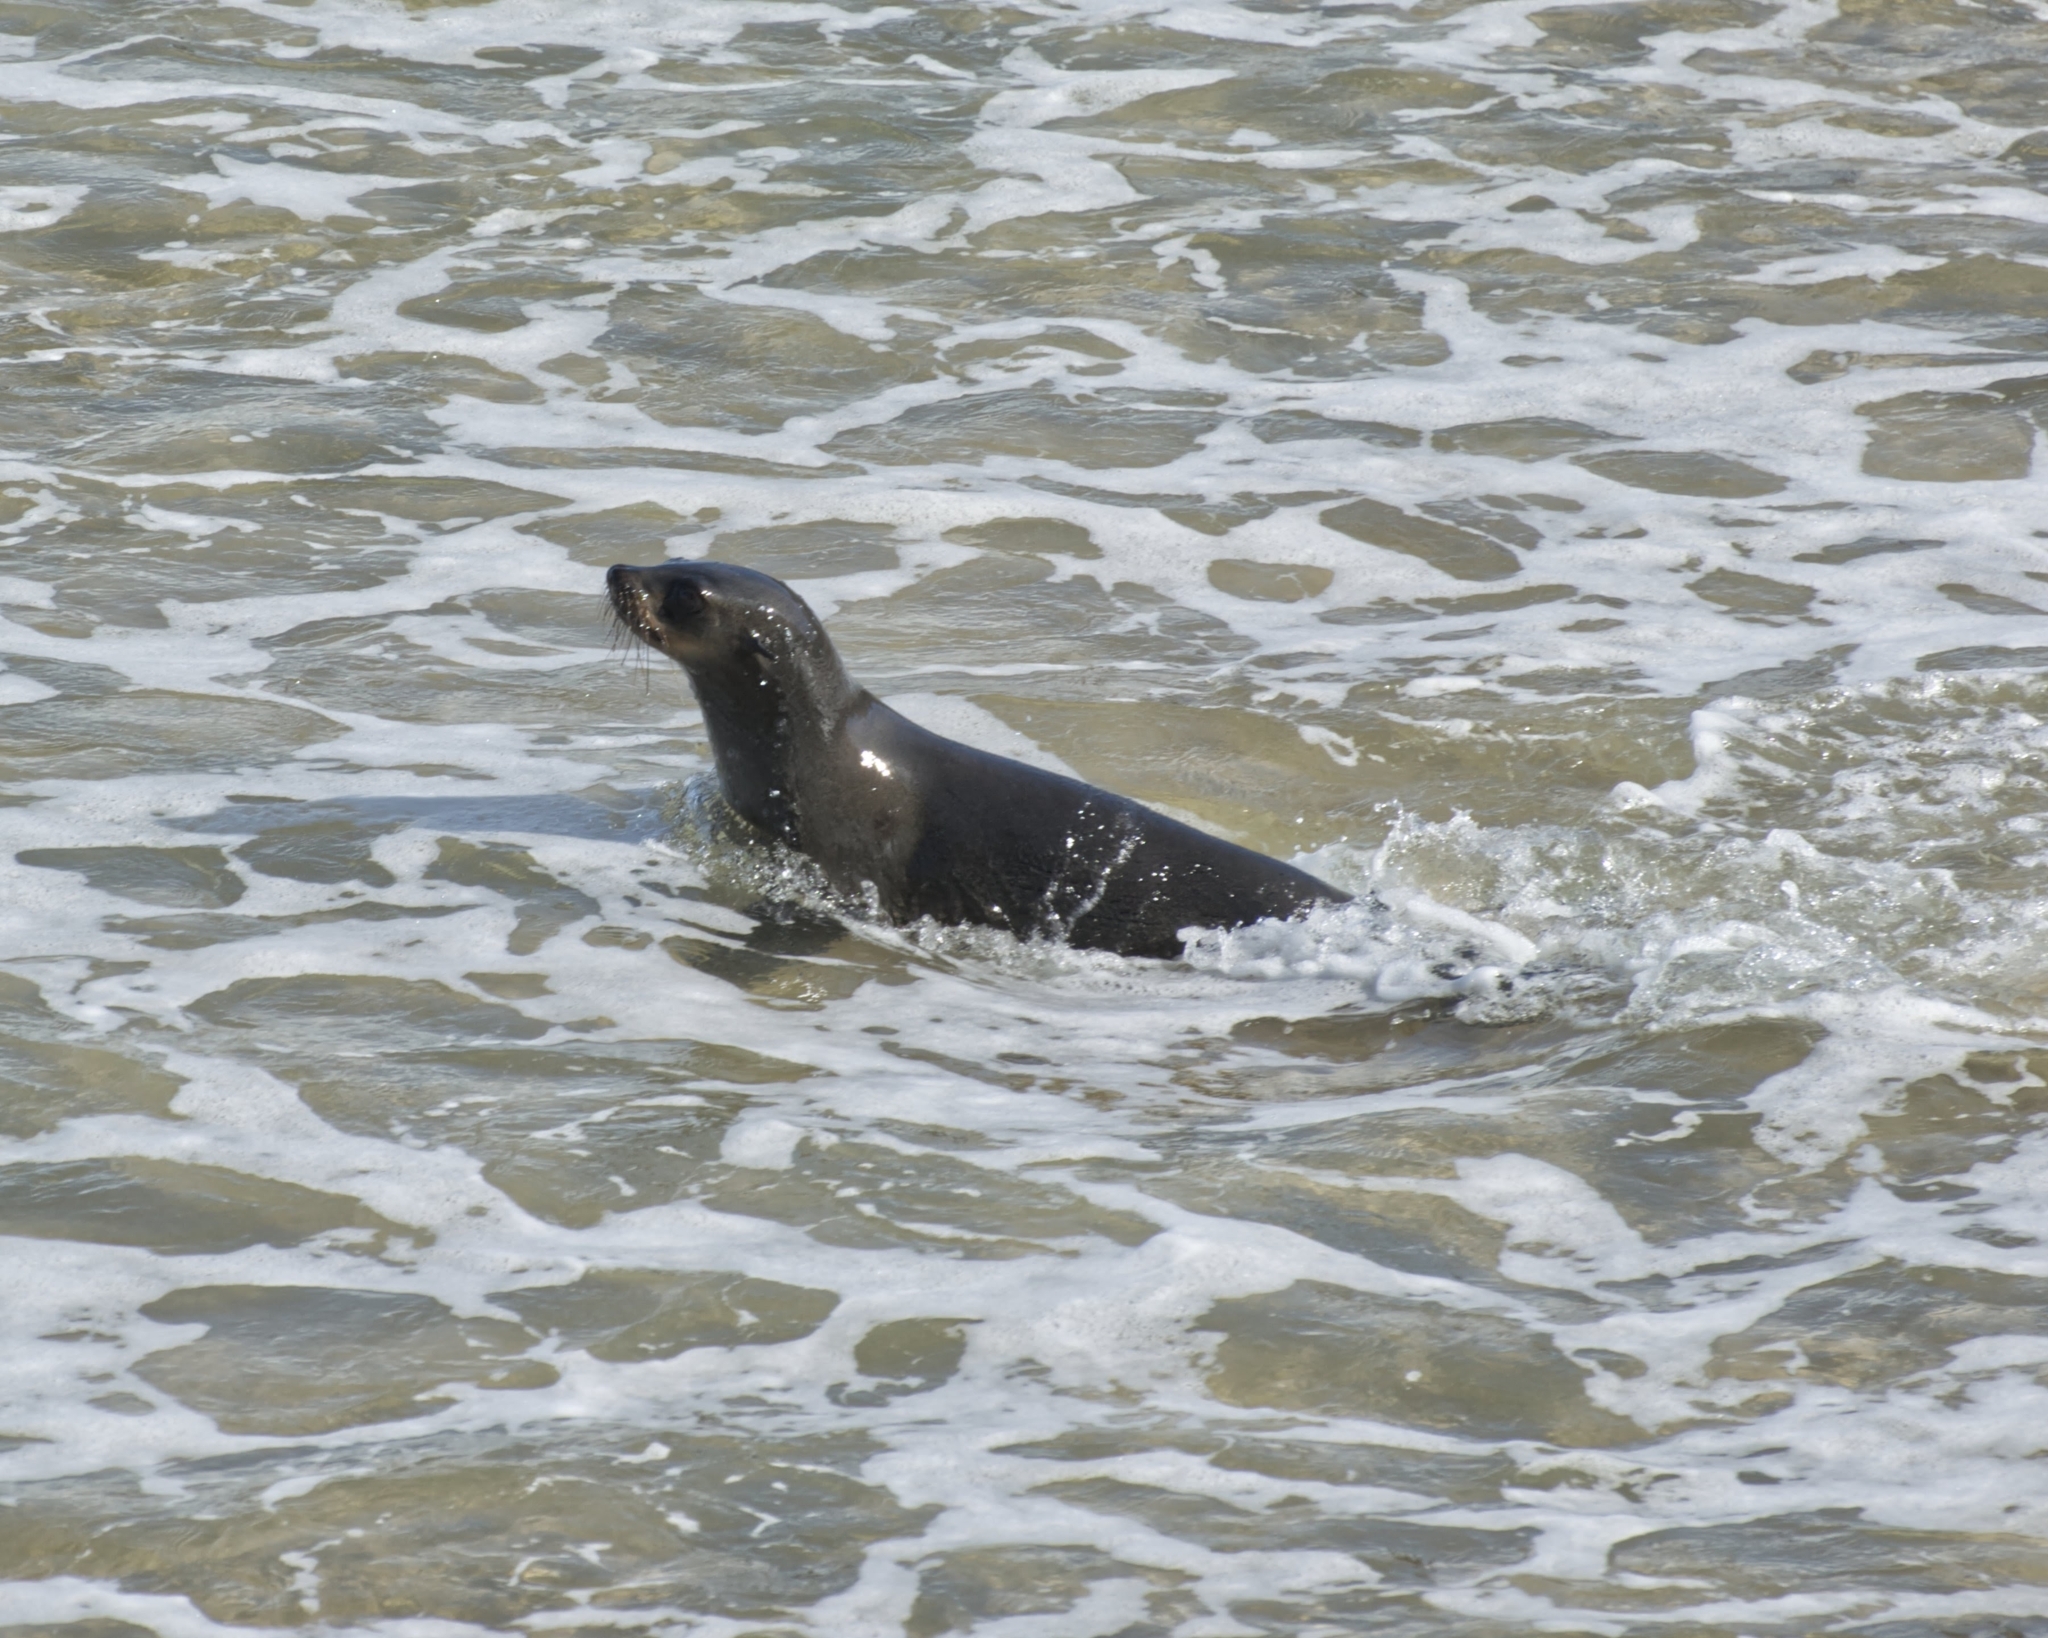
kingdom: Animalia
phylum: Chordata
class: Mammalia
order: Carnivora
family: Otariidae
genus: Arctocephalus
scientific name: Arctocephalus pusillus
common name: Brown fur seal
